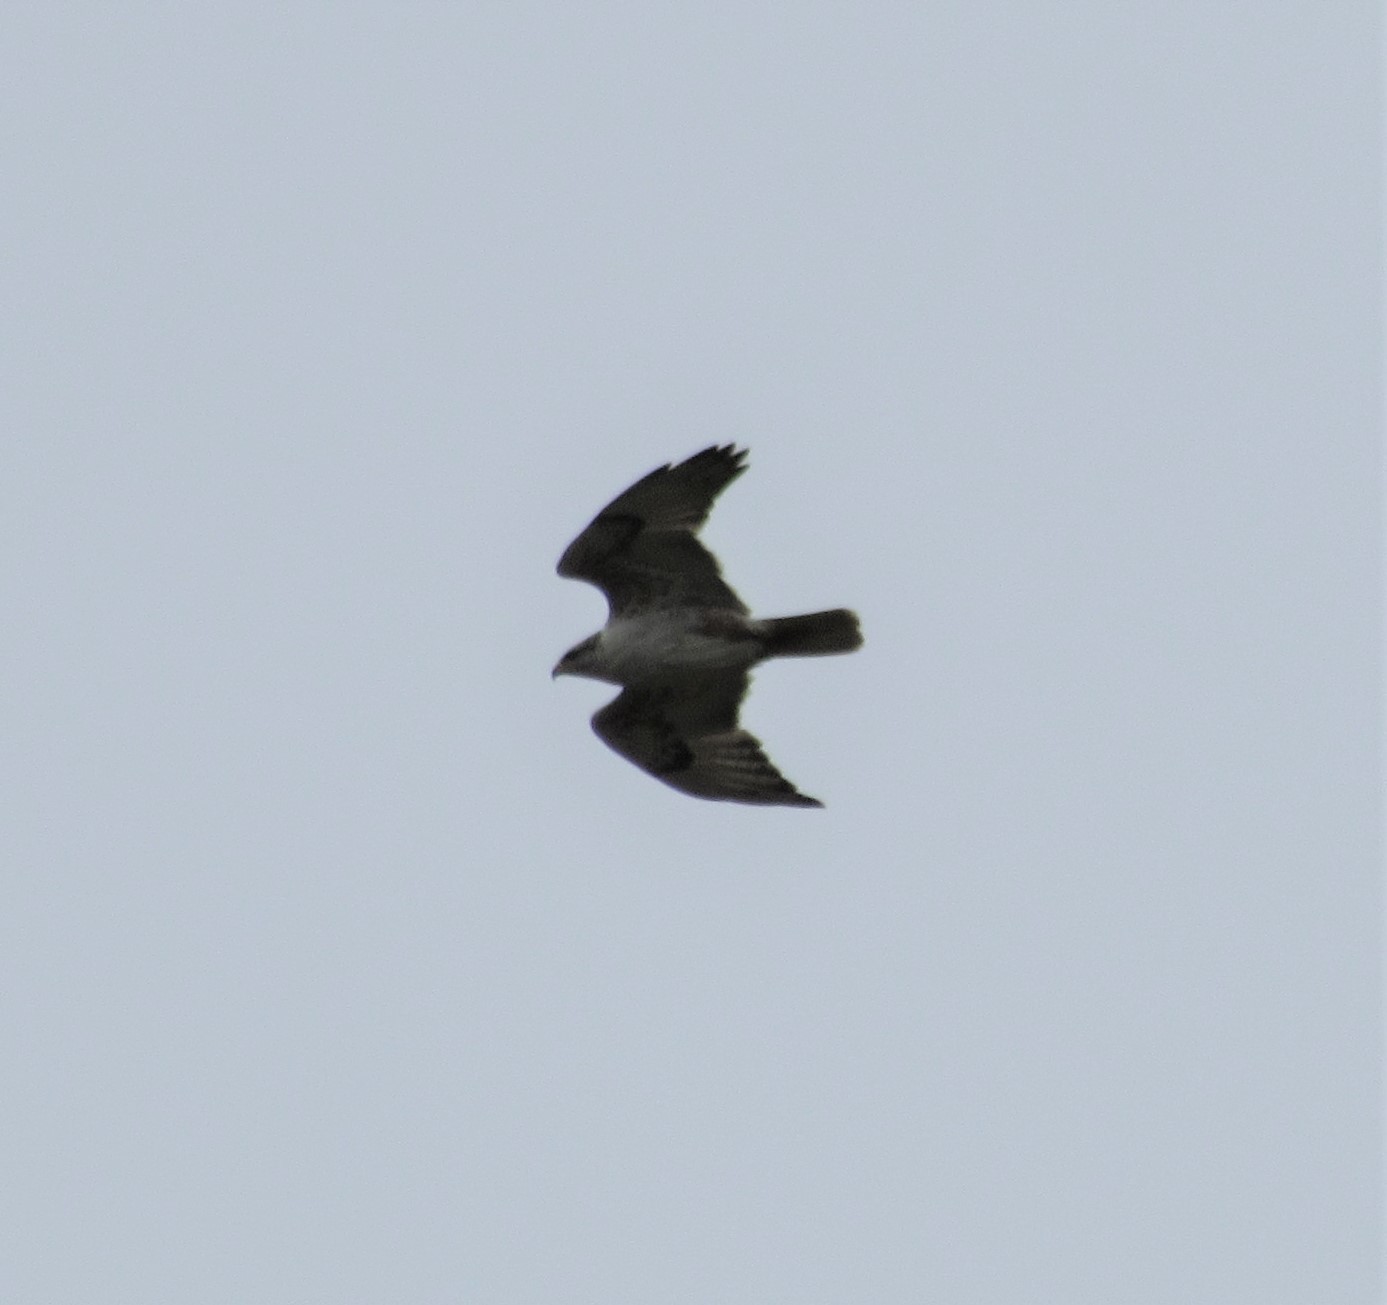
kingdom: Animalia
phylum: Chordata
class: Aves
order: Accipitriformes
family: Accipitridae
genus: Buteo
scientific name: Buteo regalis
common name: Ferruginous hawk
